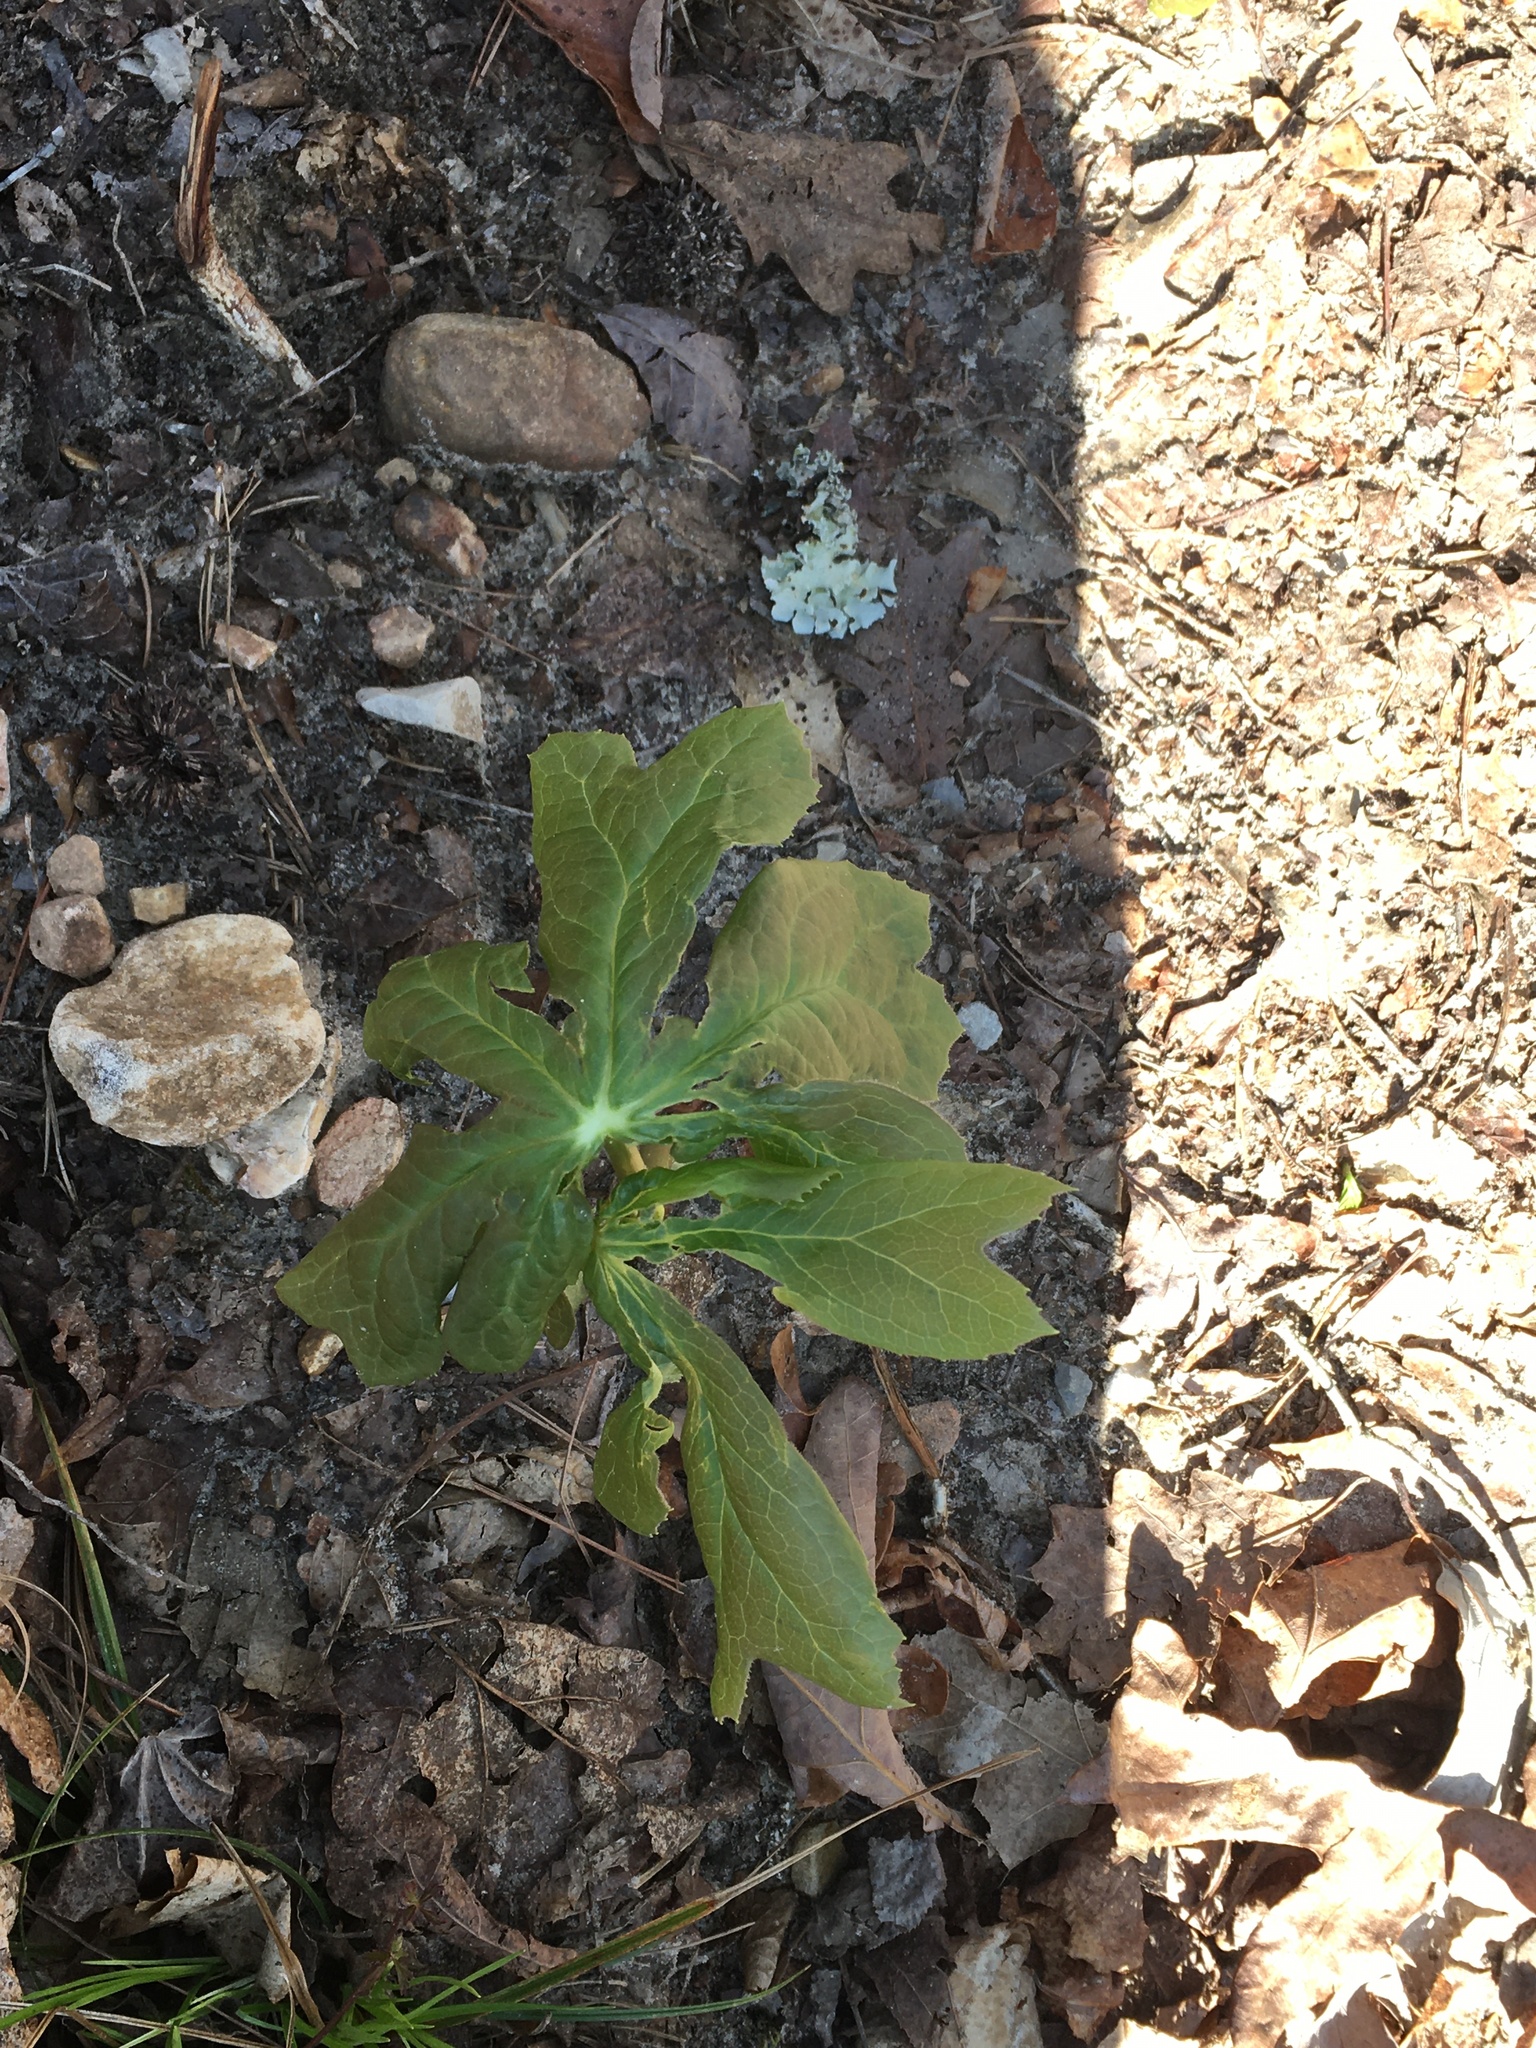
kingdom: Plantae
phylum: Tracheophyta
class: Magnoliopsida
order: Ranunculales
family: Berberidaceae
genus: Podophyllum
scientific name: Podophyllum peltatum
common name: Wild mandrake
